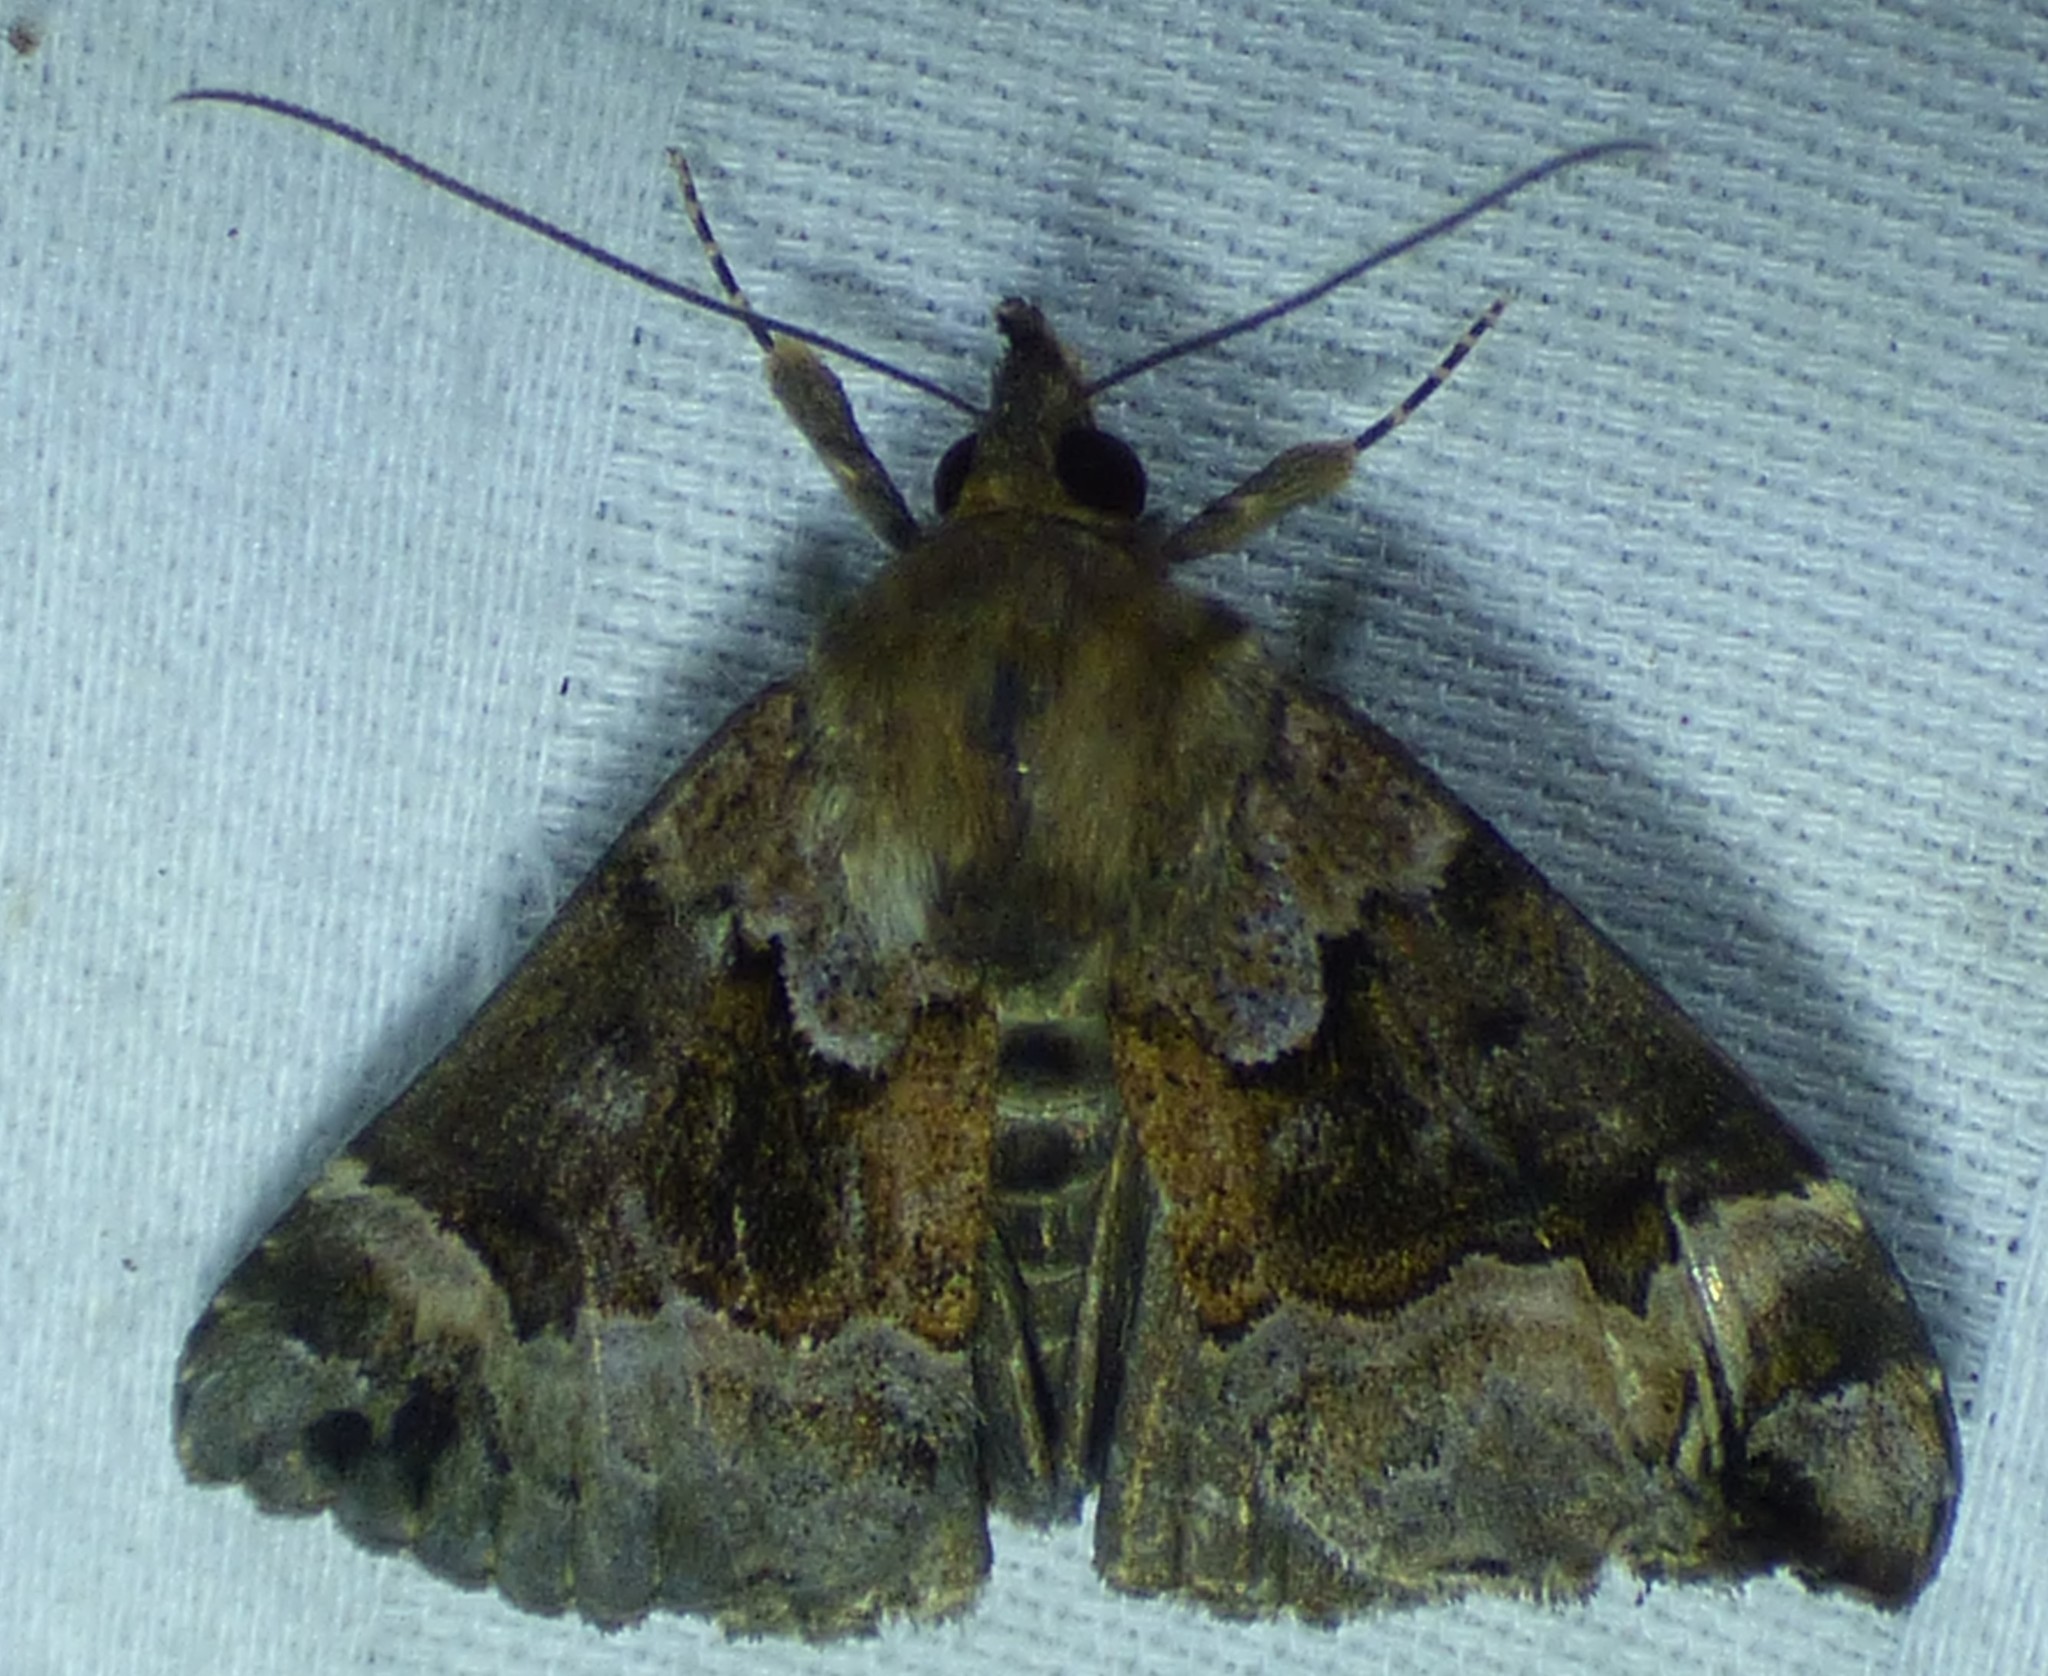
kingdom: Animalia
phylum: Arthropoda
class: Insecta
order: Lepidoptera
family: Erebidae
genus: Hypena
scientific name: Hypena palparia
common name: Mottled bomolocha moth
